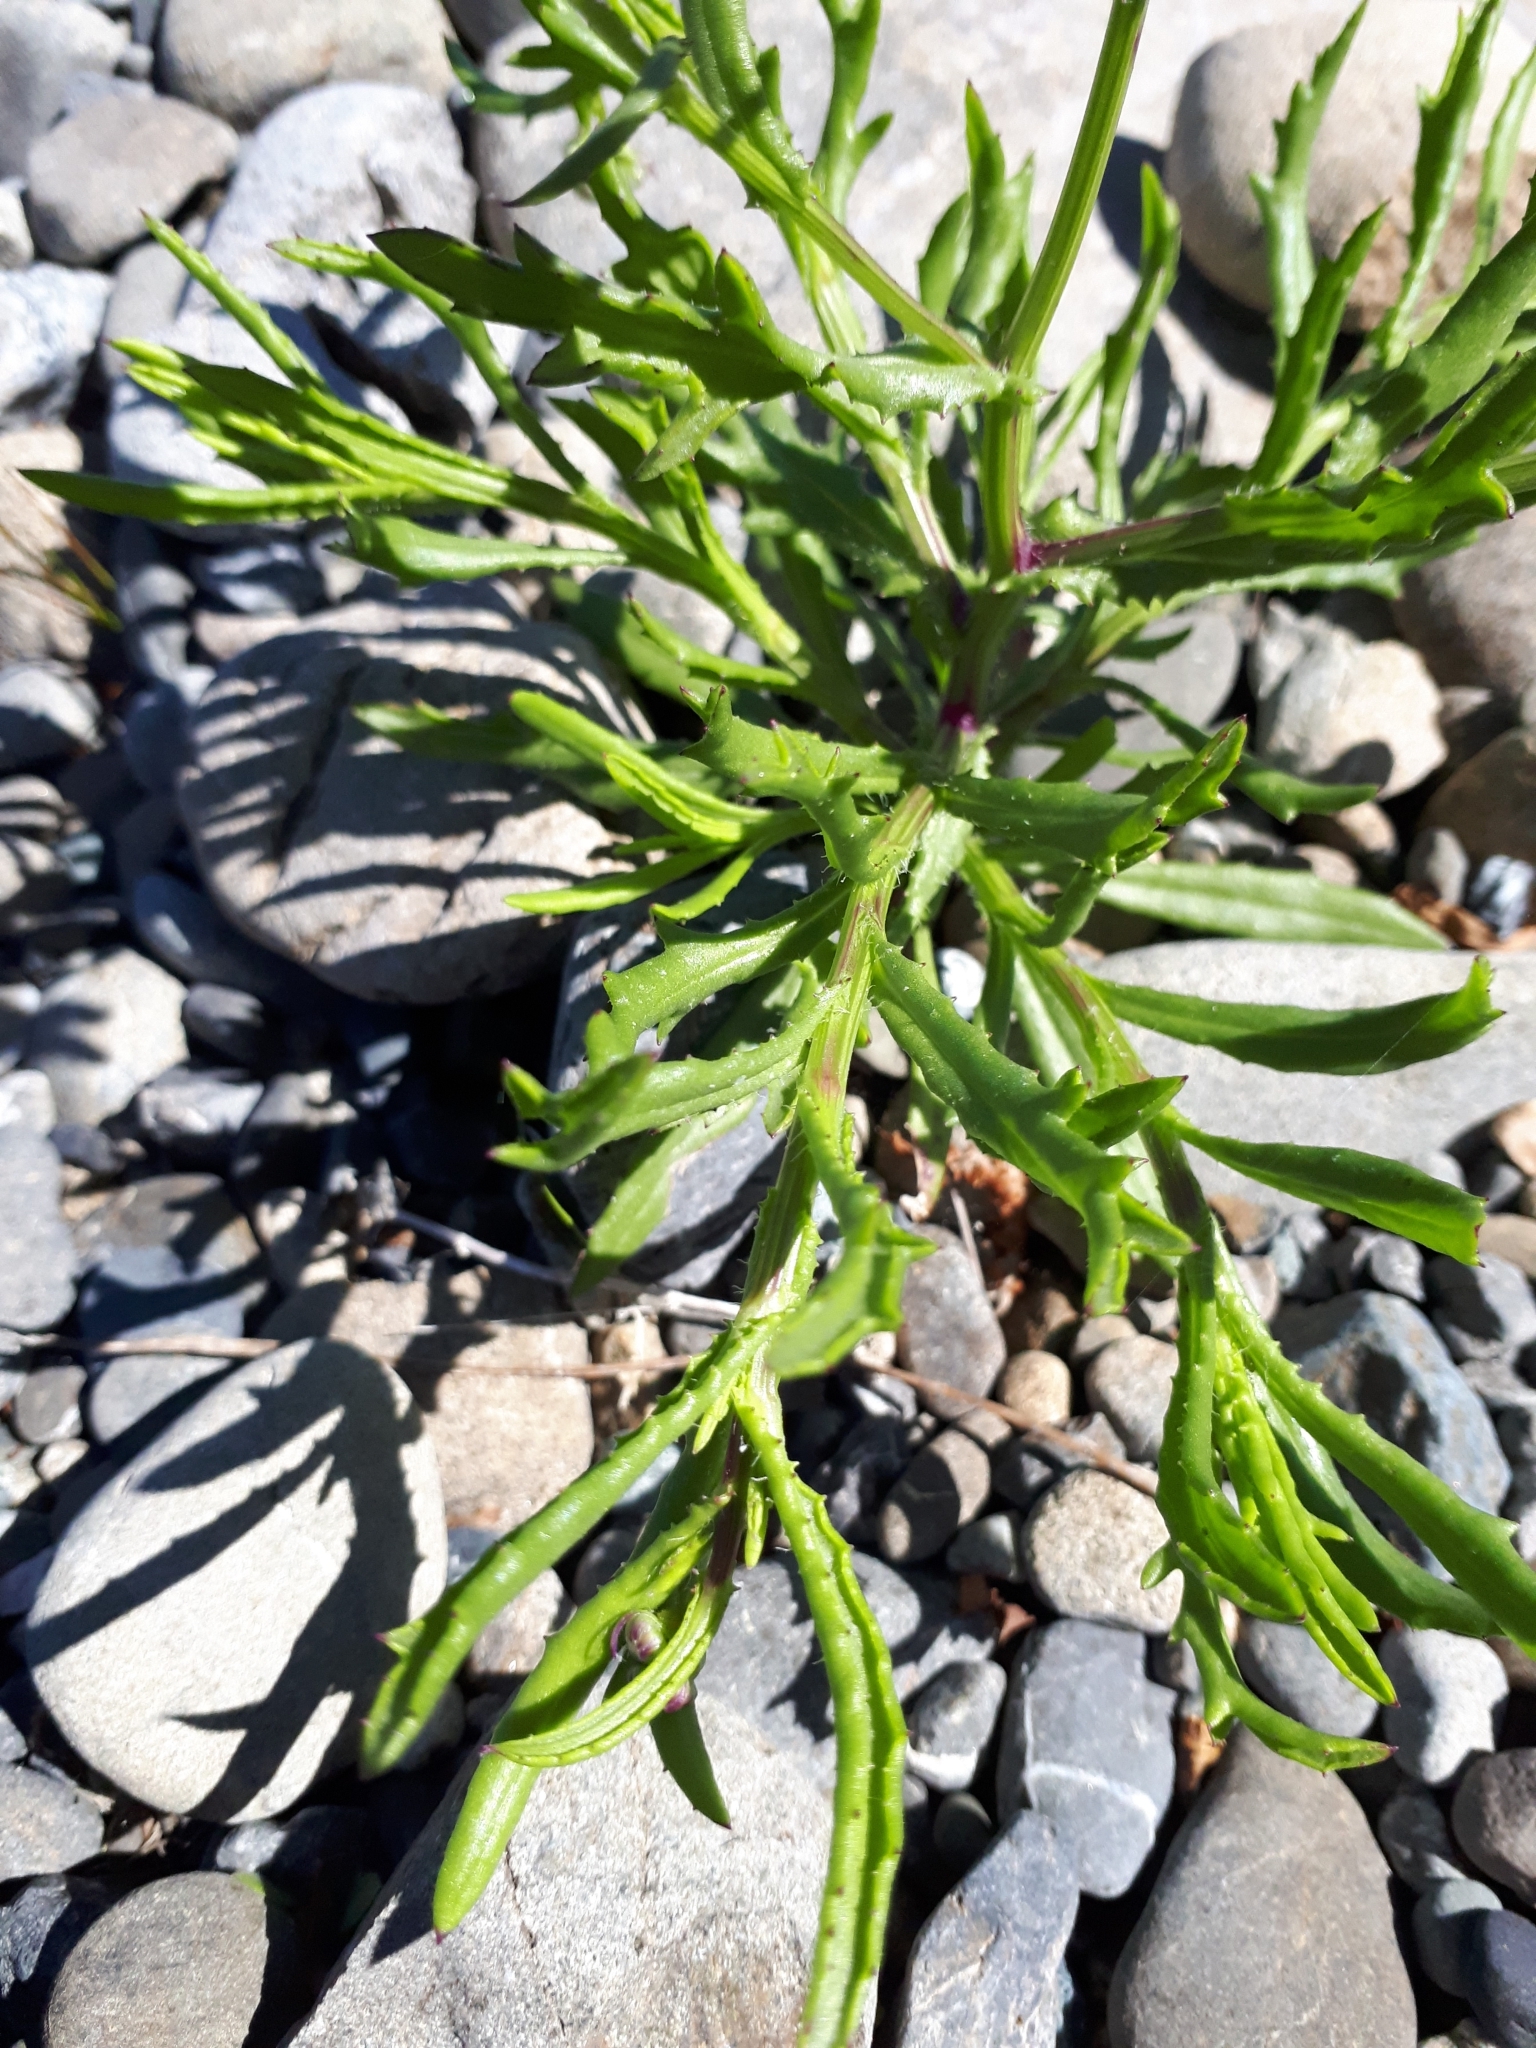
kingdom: Plantae
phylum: Tracheophyta
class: Magnoliopsida
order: Asterales
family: Asteraceae
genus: Senecio
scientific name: Senecio skirrhodon
